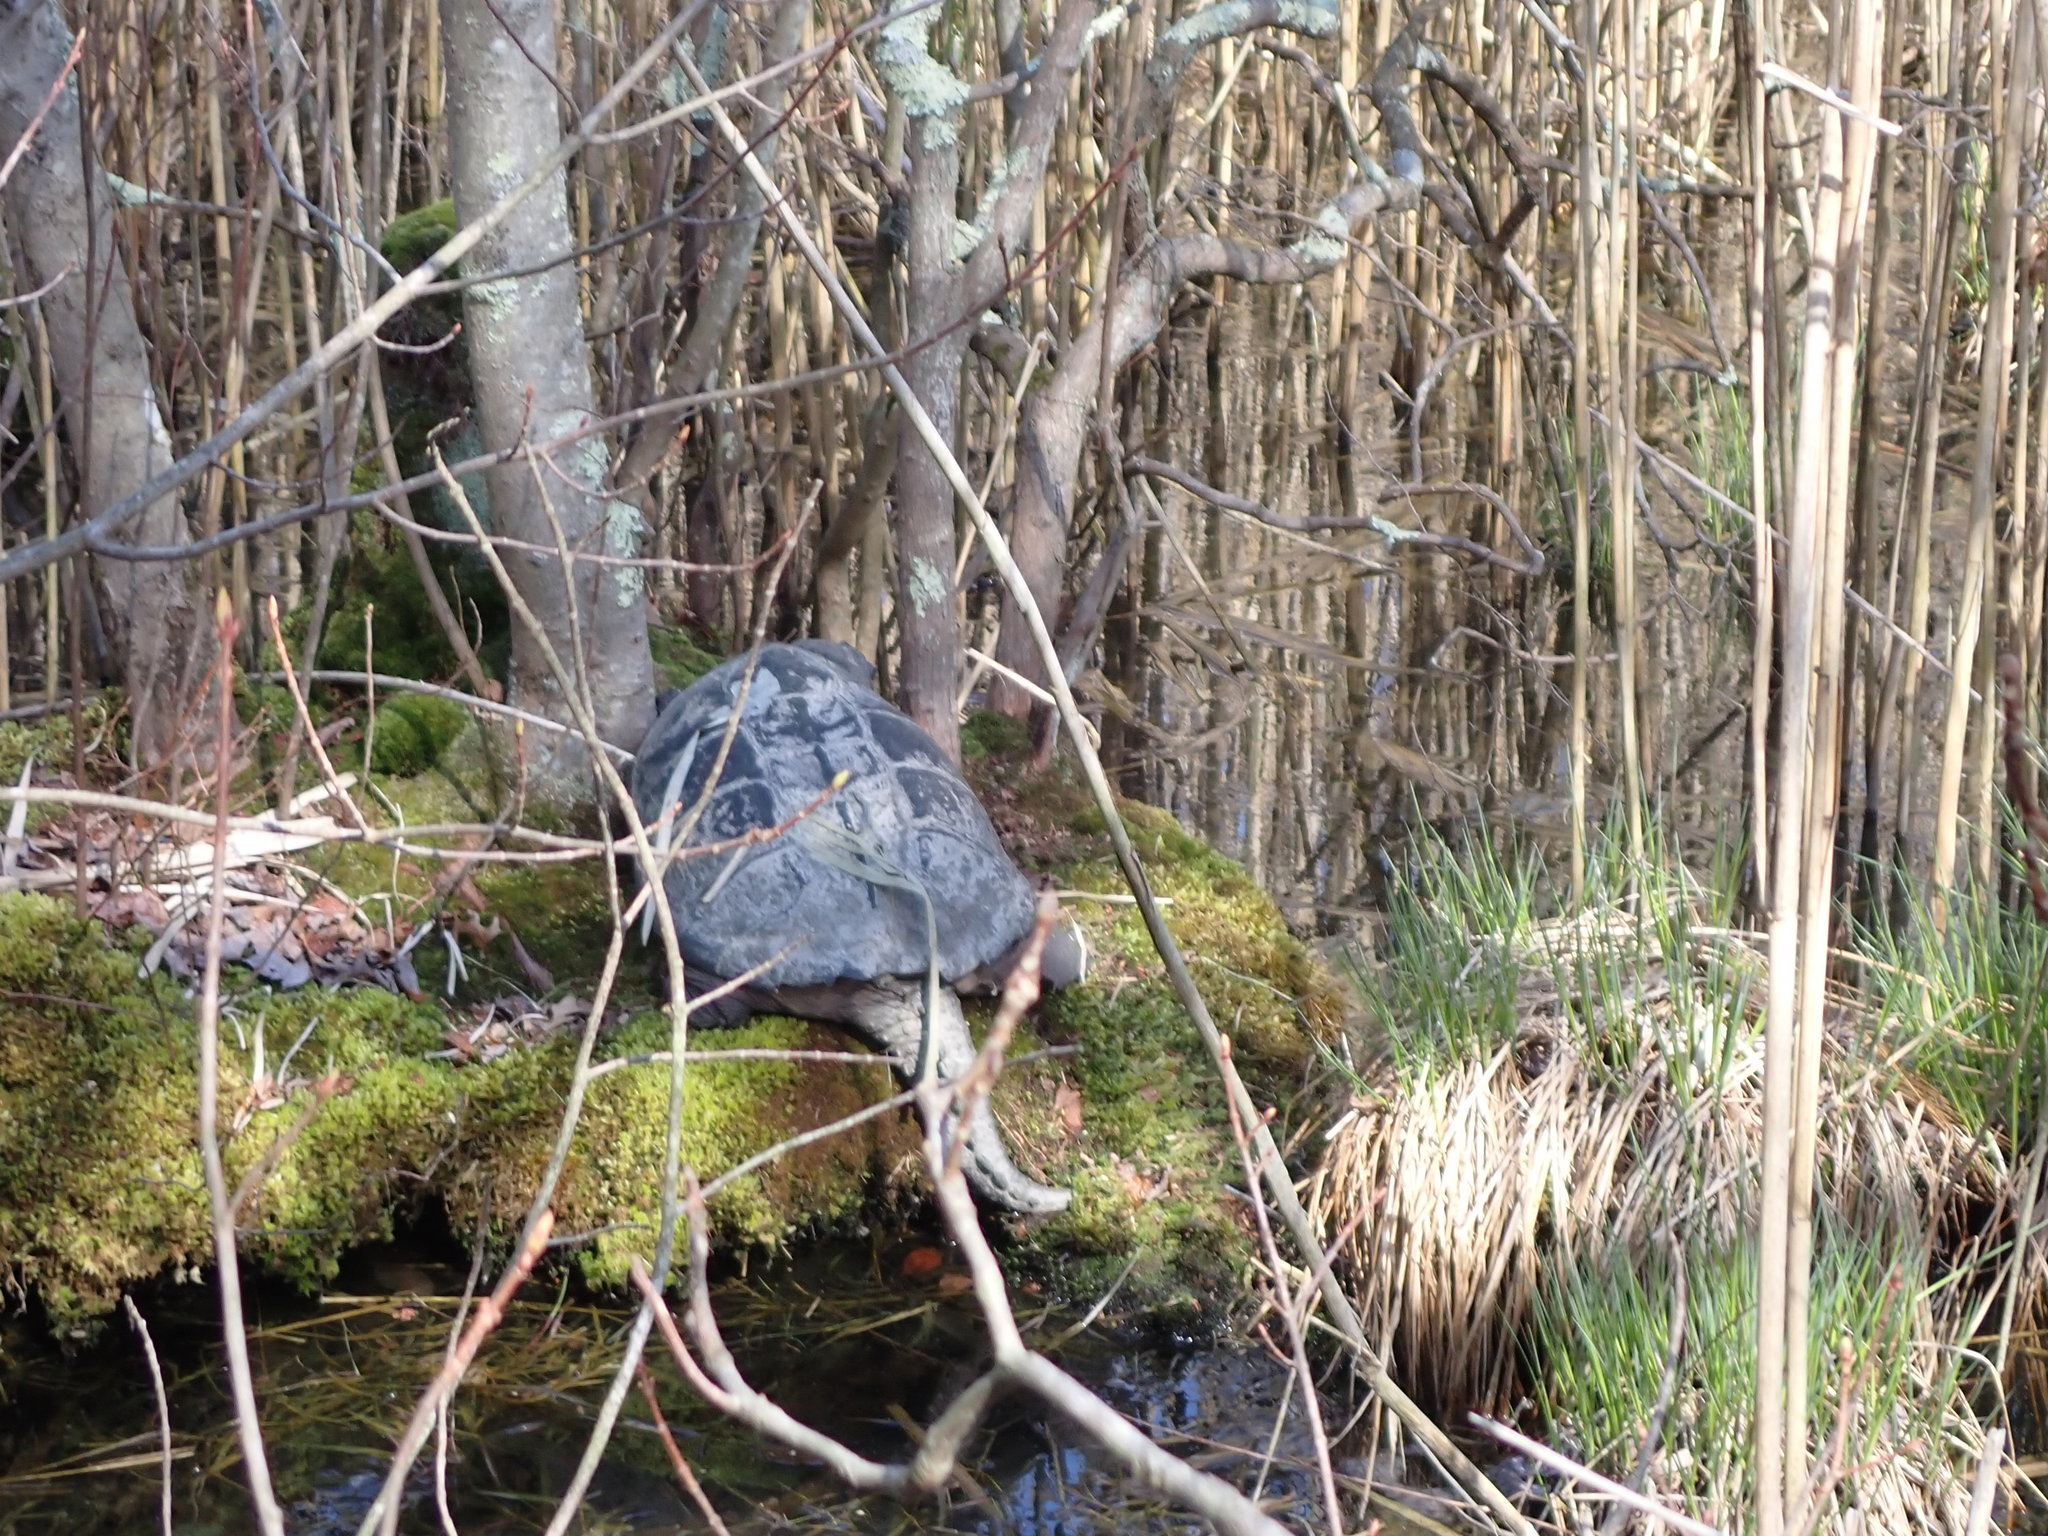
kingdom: Animalia
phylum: Chordata
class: Testudines
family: Chelydridae
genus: Chelydra
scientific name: Chelydra serpentina
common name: Common snapping turtle
